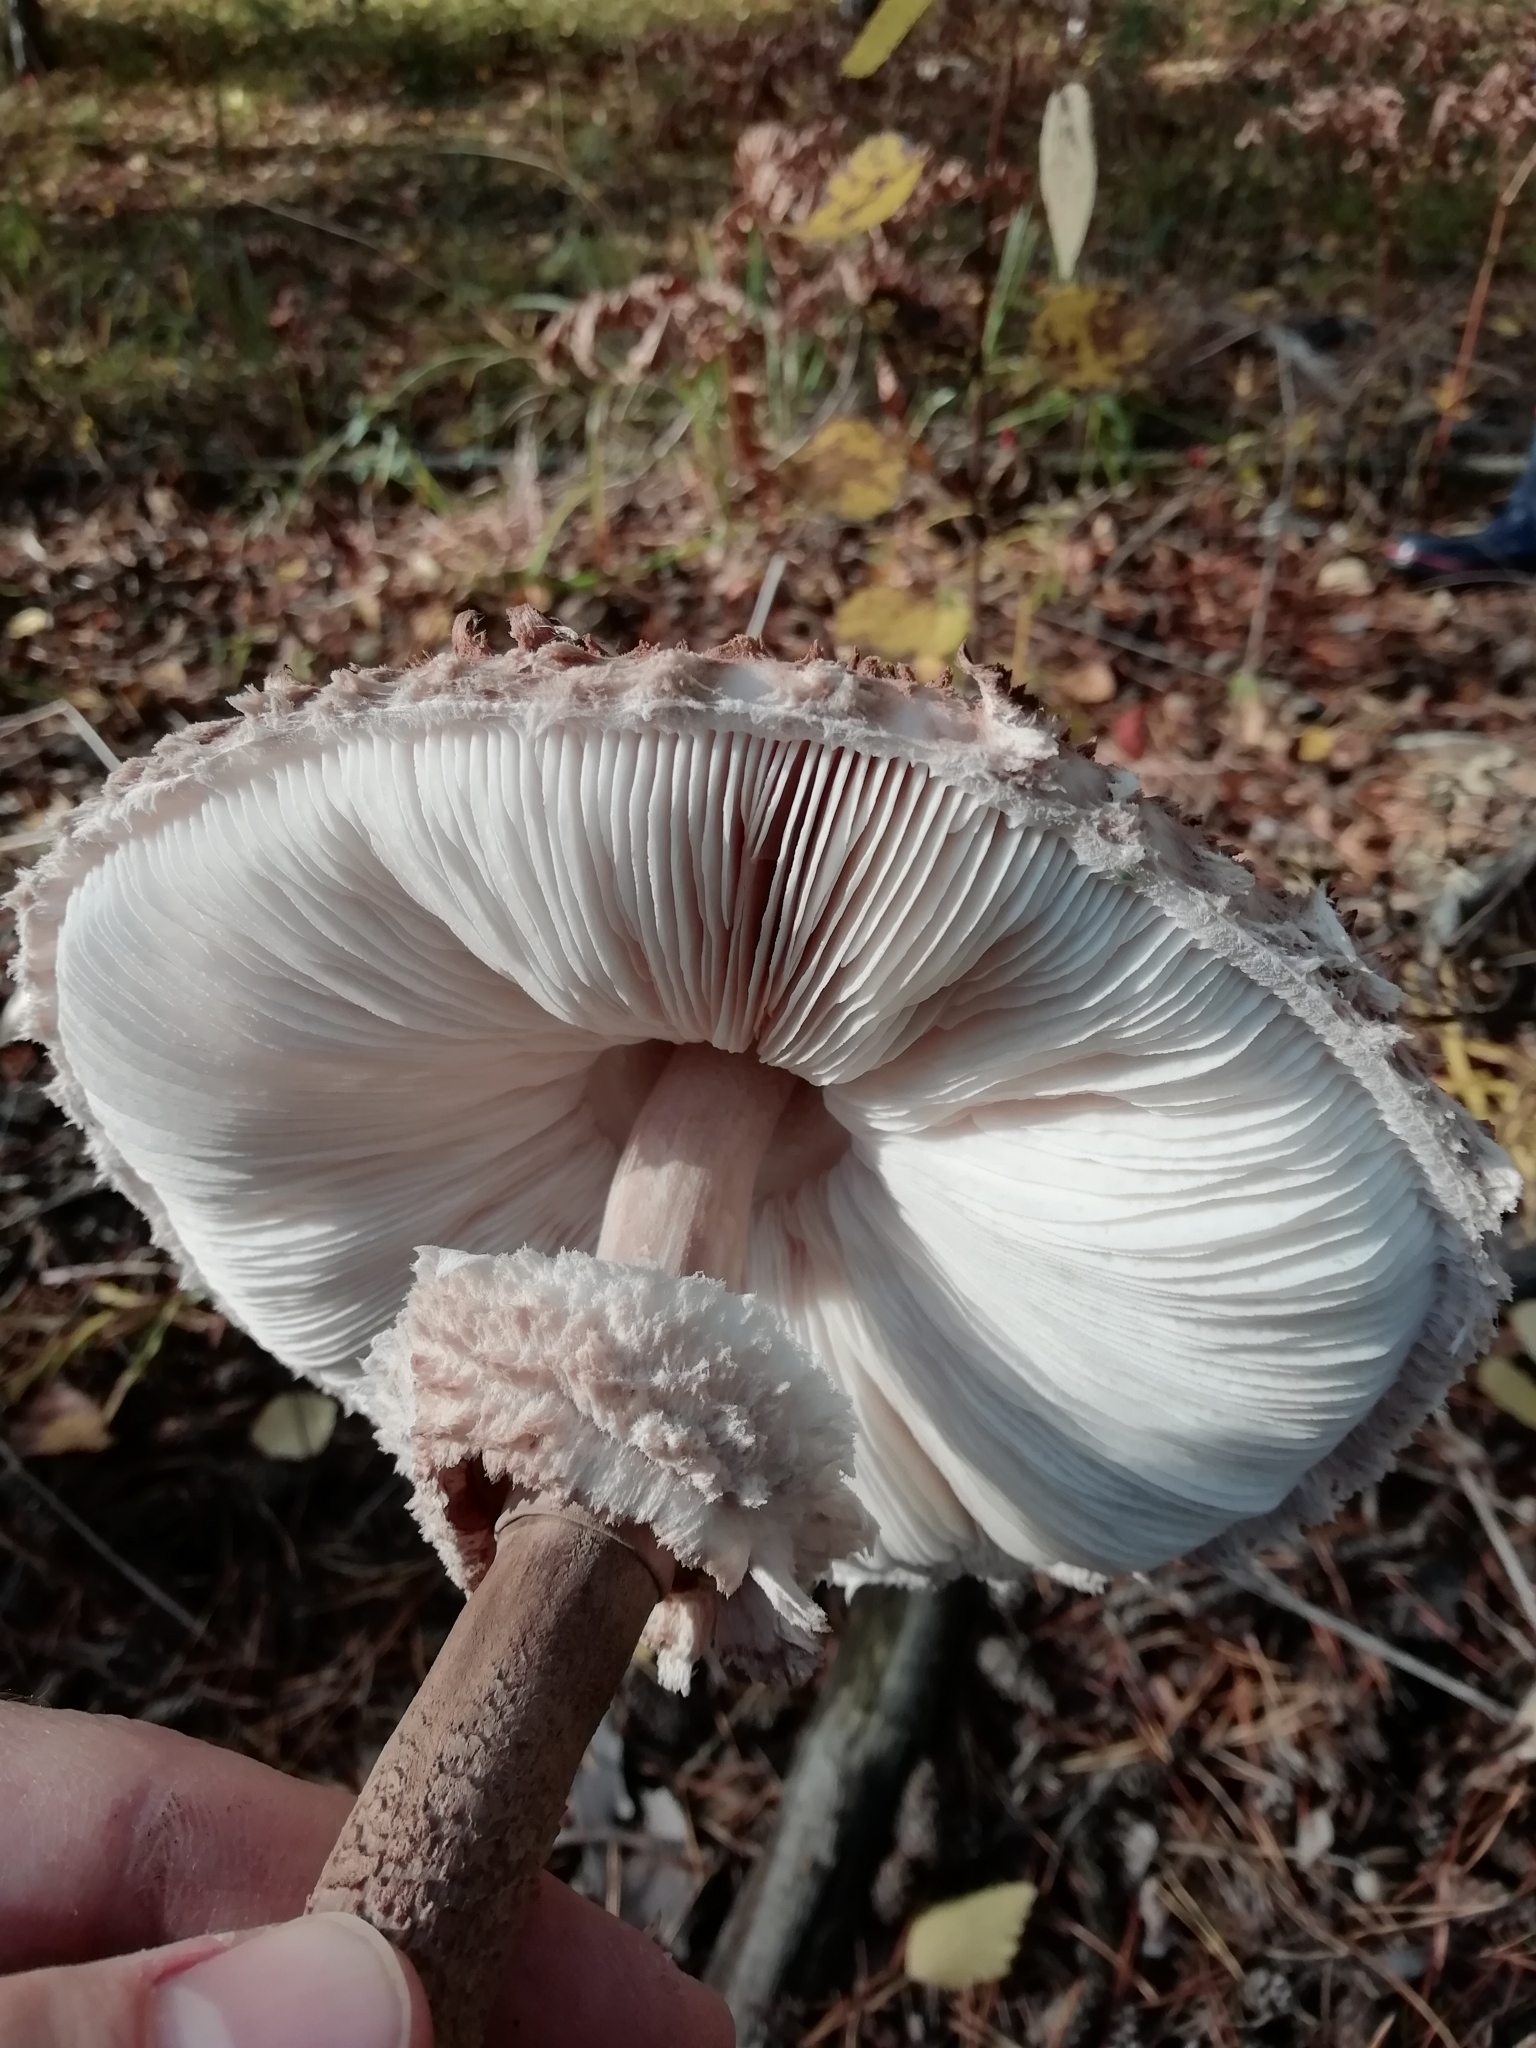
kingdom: Fungi
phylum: Basidiomycota
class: Agaricomycetes
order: Agaricales
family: Agaricaceae
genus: Macrolepiota
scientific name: Macrolepiota procera
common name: Parasol
